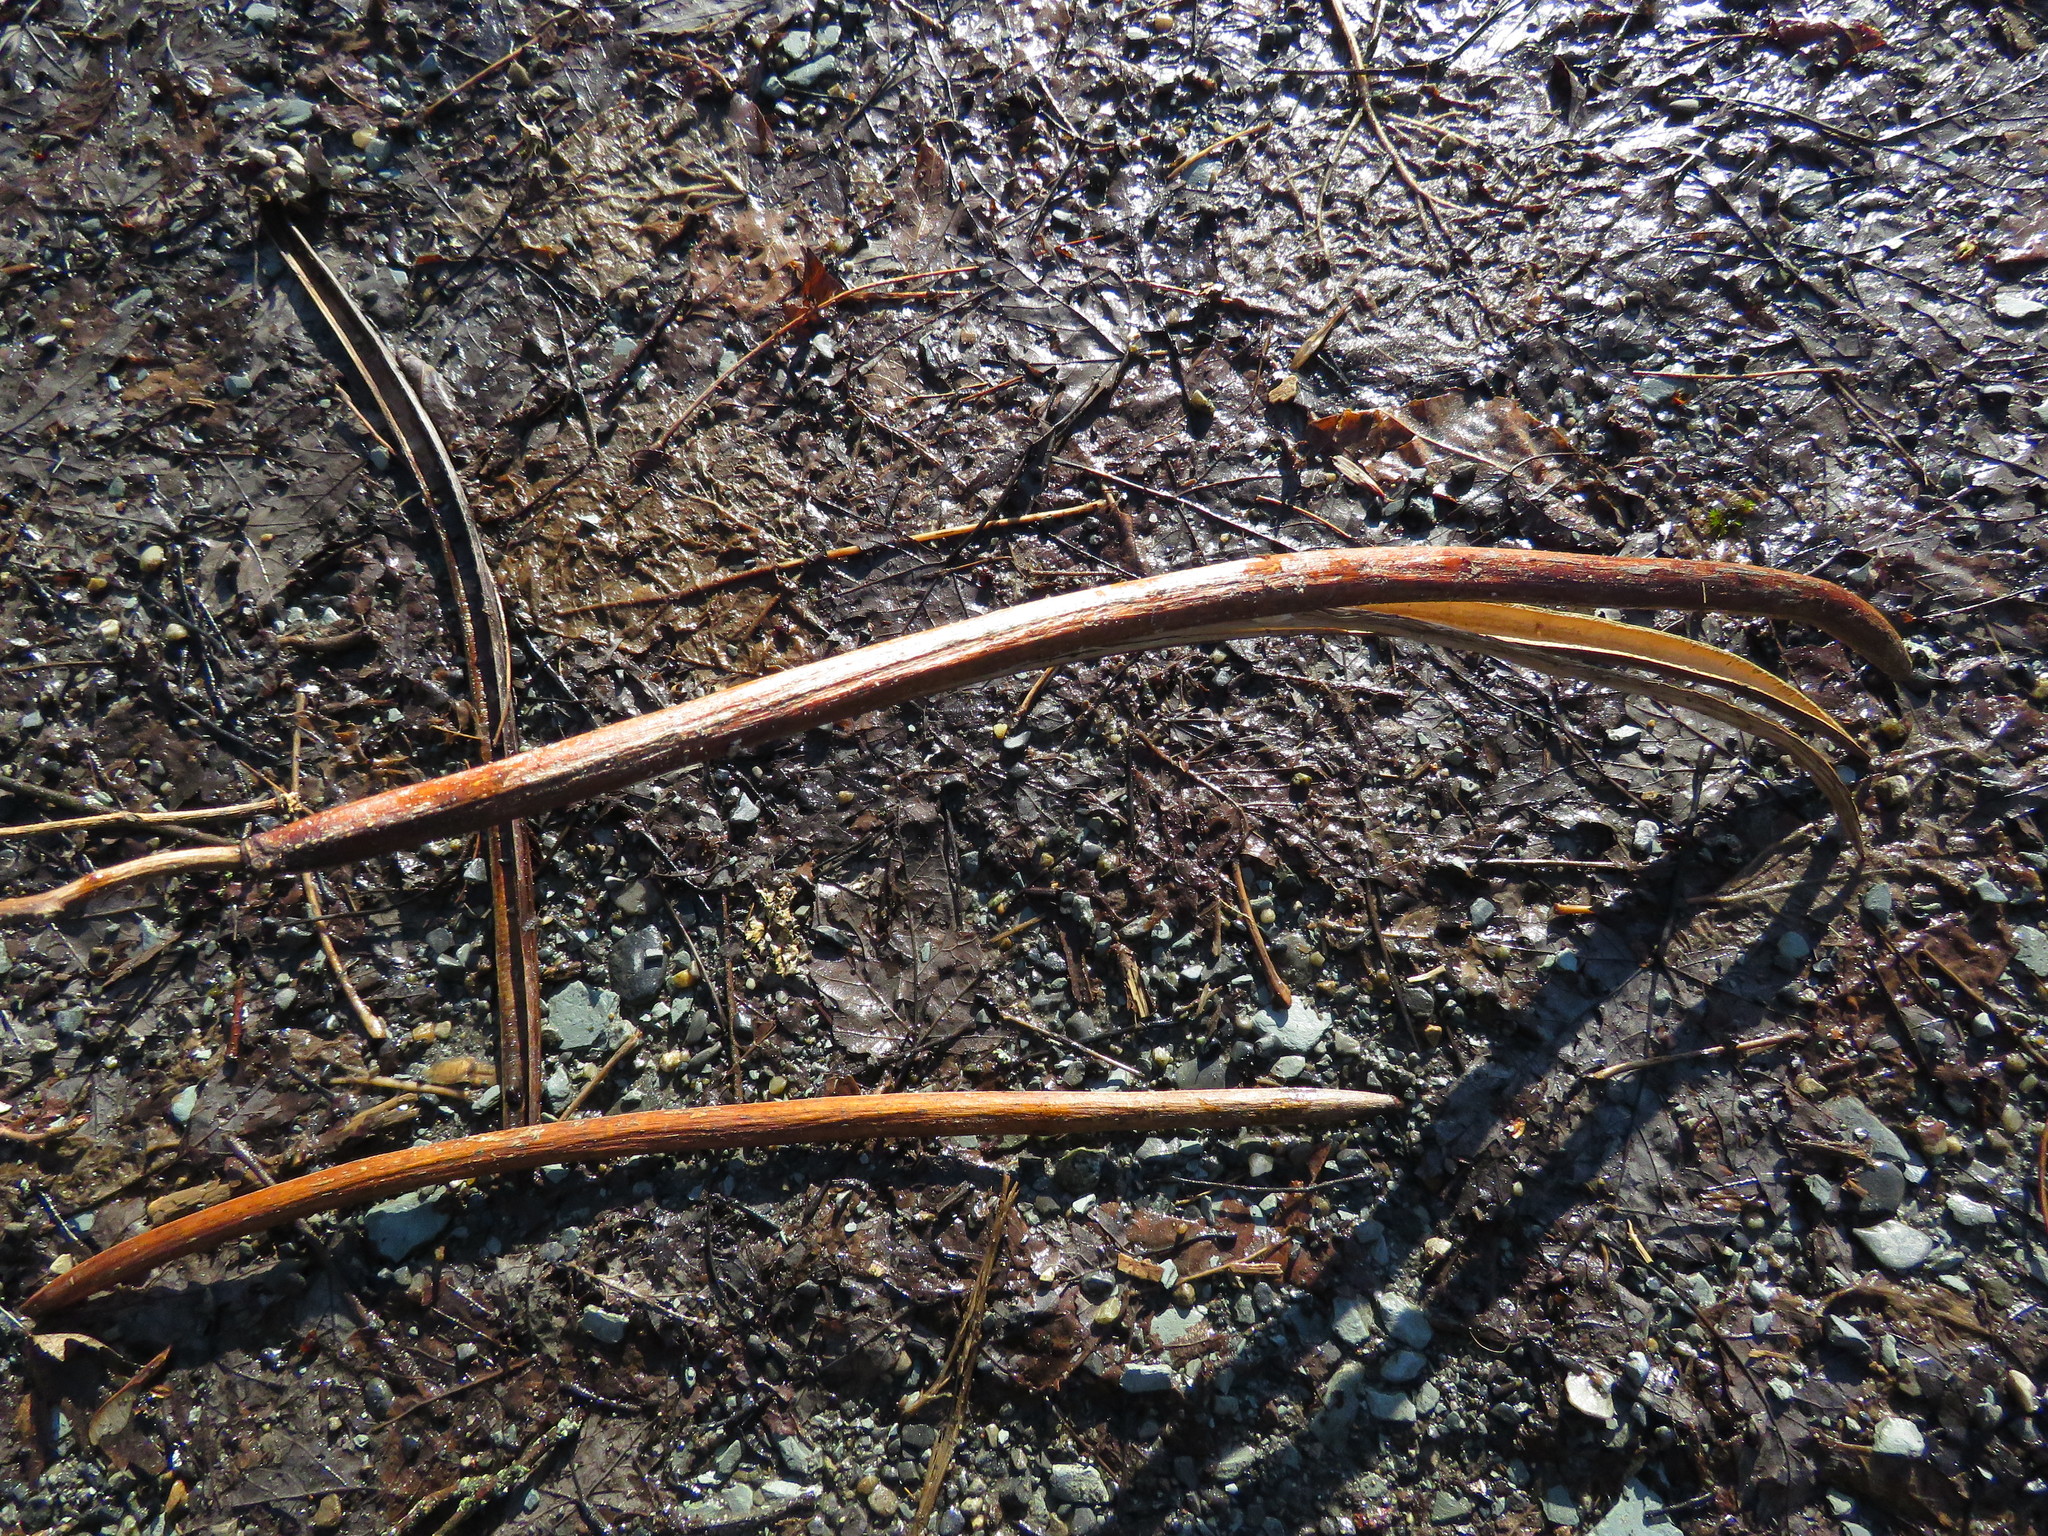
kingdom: Plantae
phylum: Tracheophyta
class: Magnoliopsida
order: Lamiales
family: Bignoniaceae
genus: Catalpa
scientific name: Catalpa speciosa
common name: Northern catalpa
